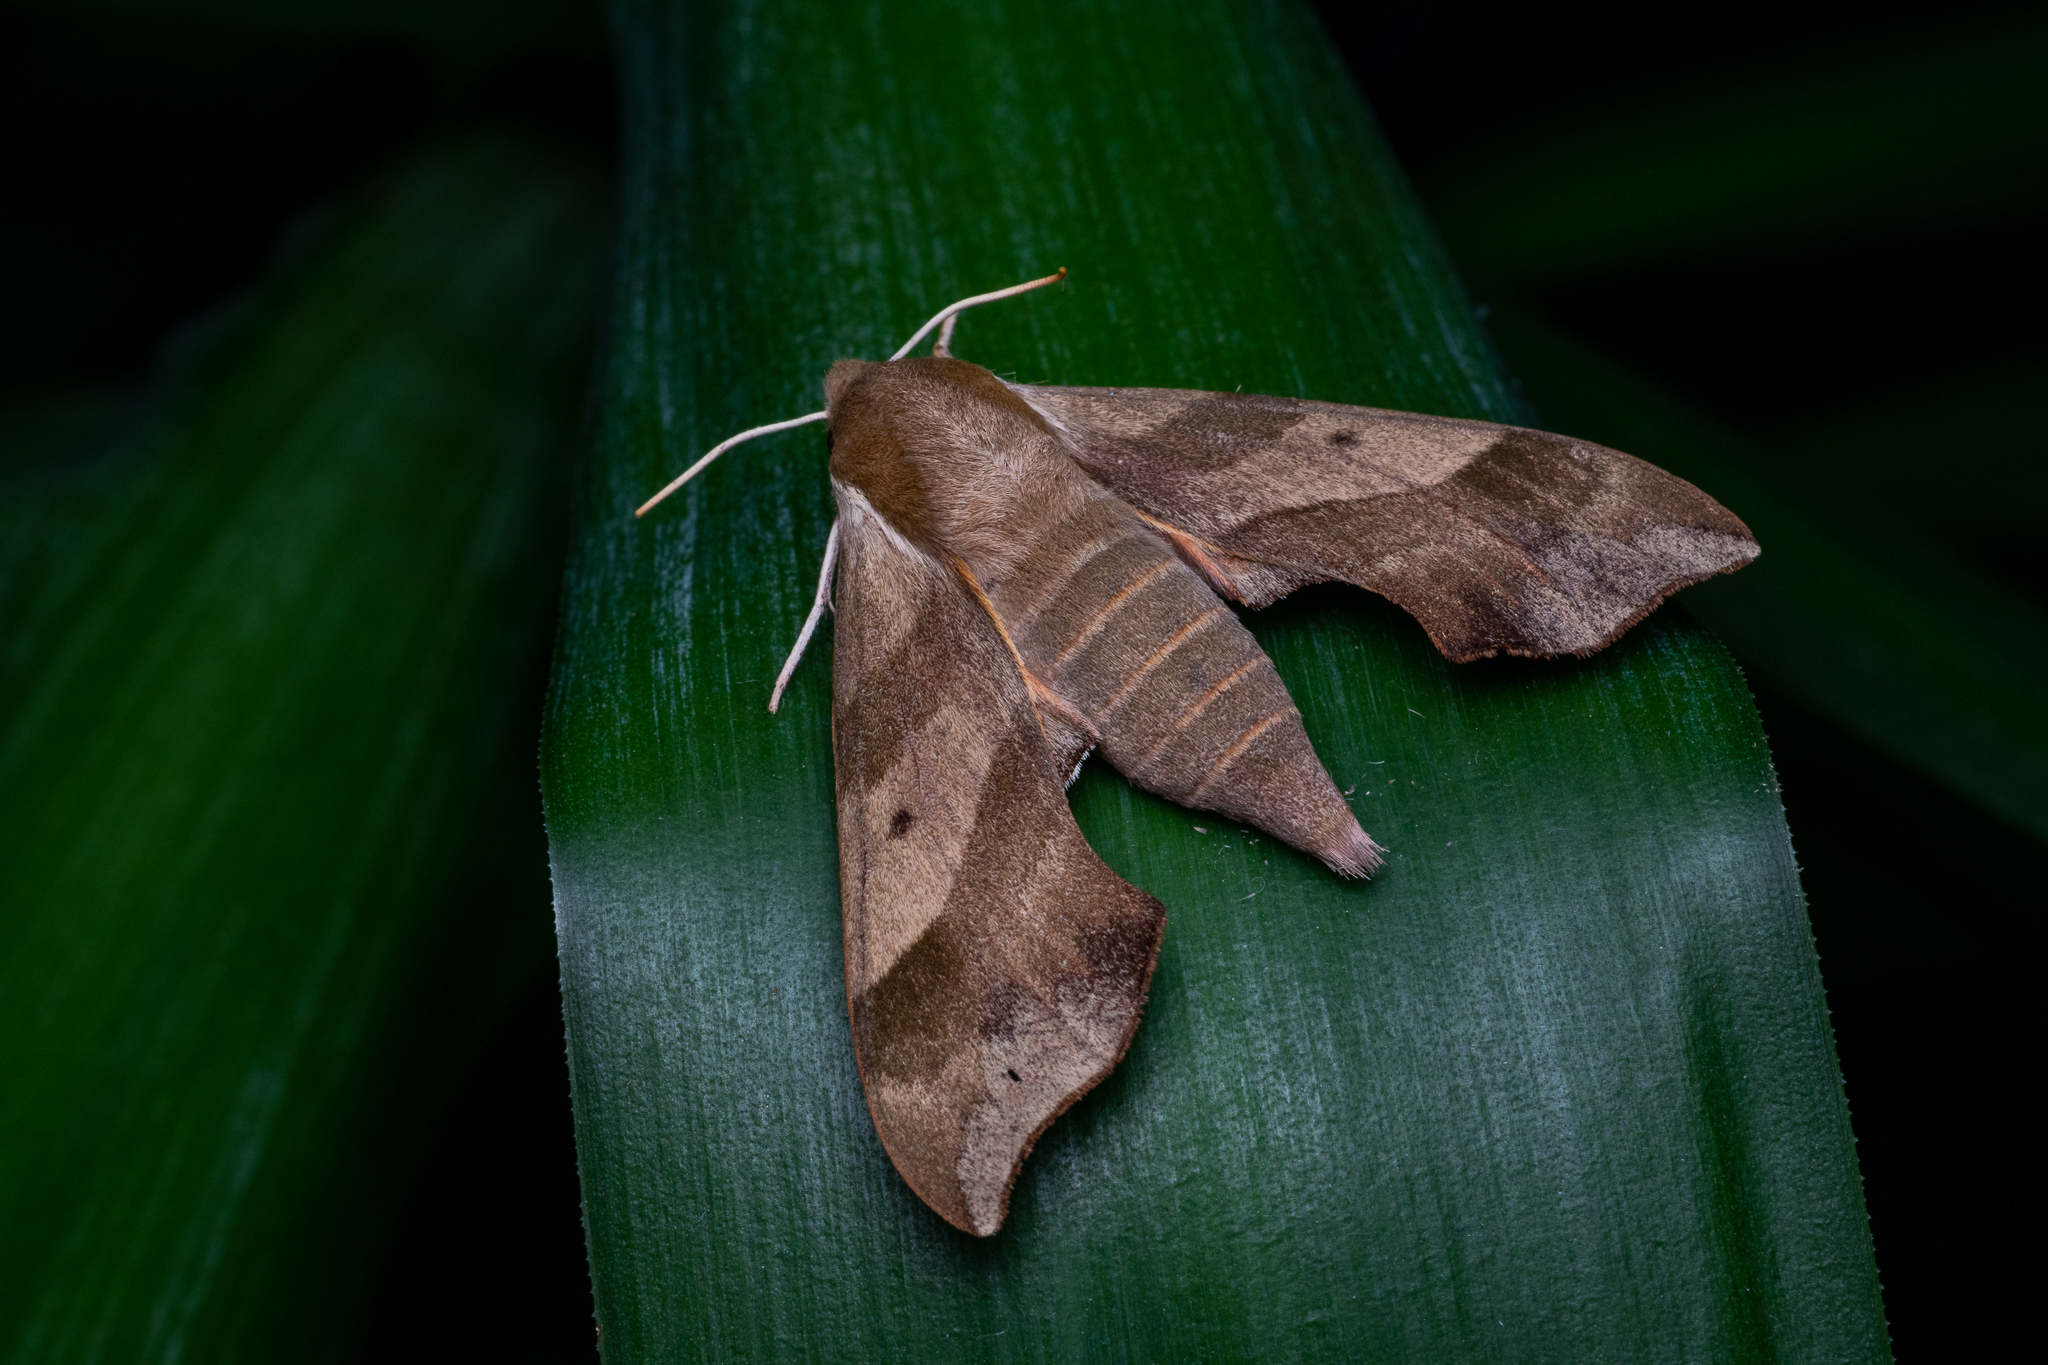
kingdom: Animalia
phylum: Arthropoda
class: Insecta
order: Lepidoptera
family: Sphingidae
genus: Darapsa
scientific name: Darapsa myron
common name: Hog sphinx
